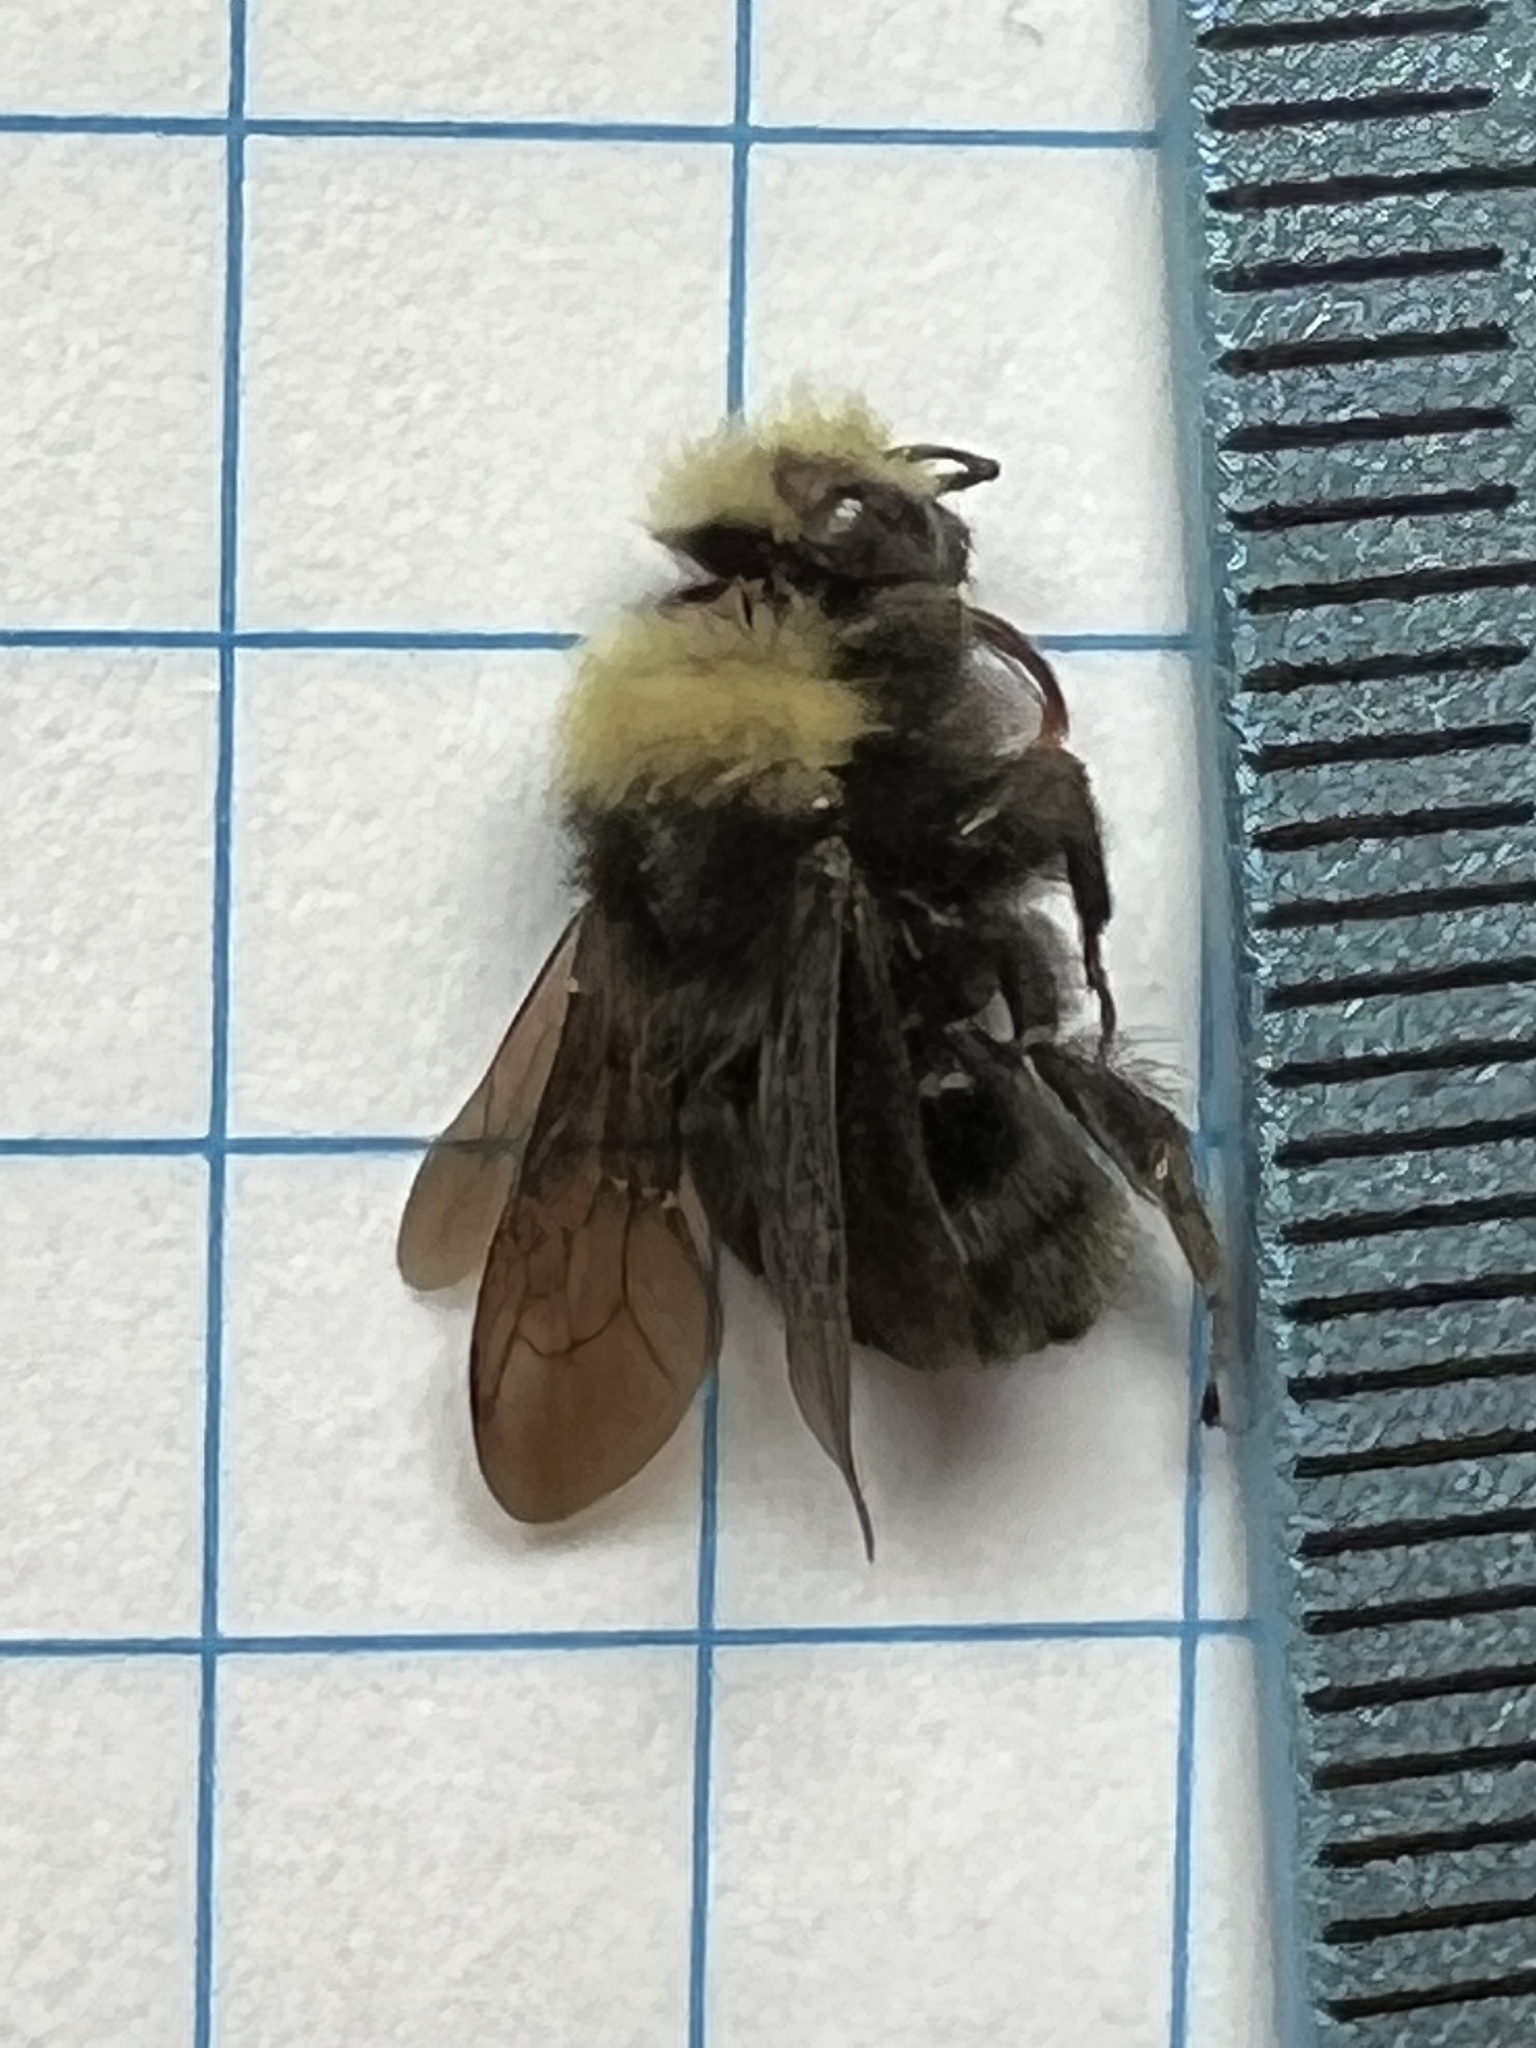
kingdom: Animalia
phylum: Arthropoda
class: Insecta
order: Hymenoptera
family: Apidae
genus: Bombus
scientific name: Bombus caliginosus
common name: Obscure bumble bee
